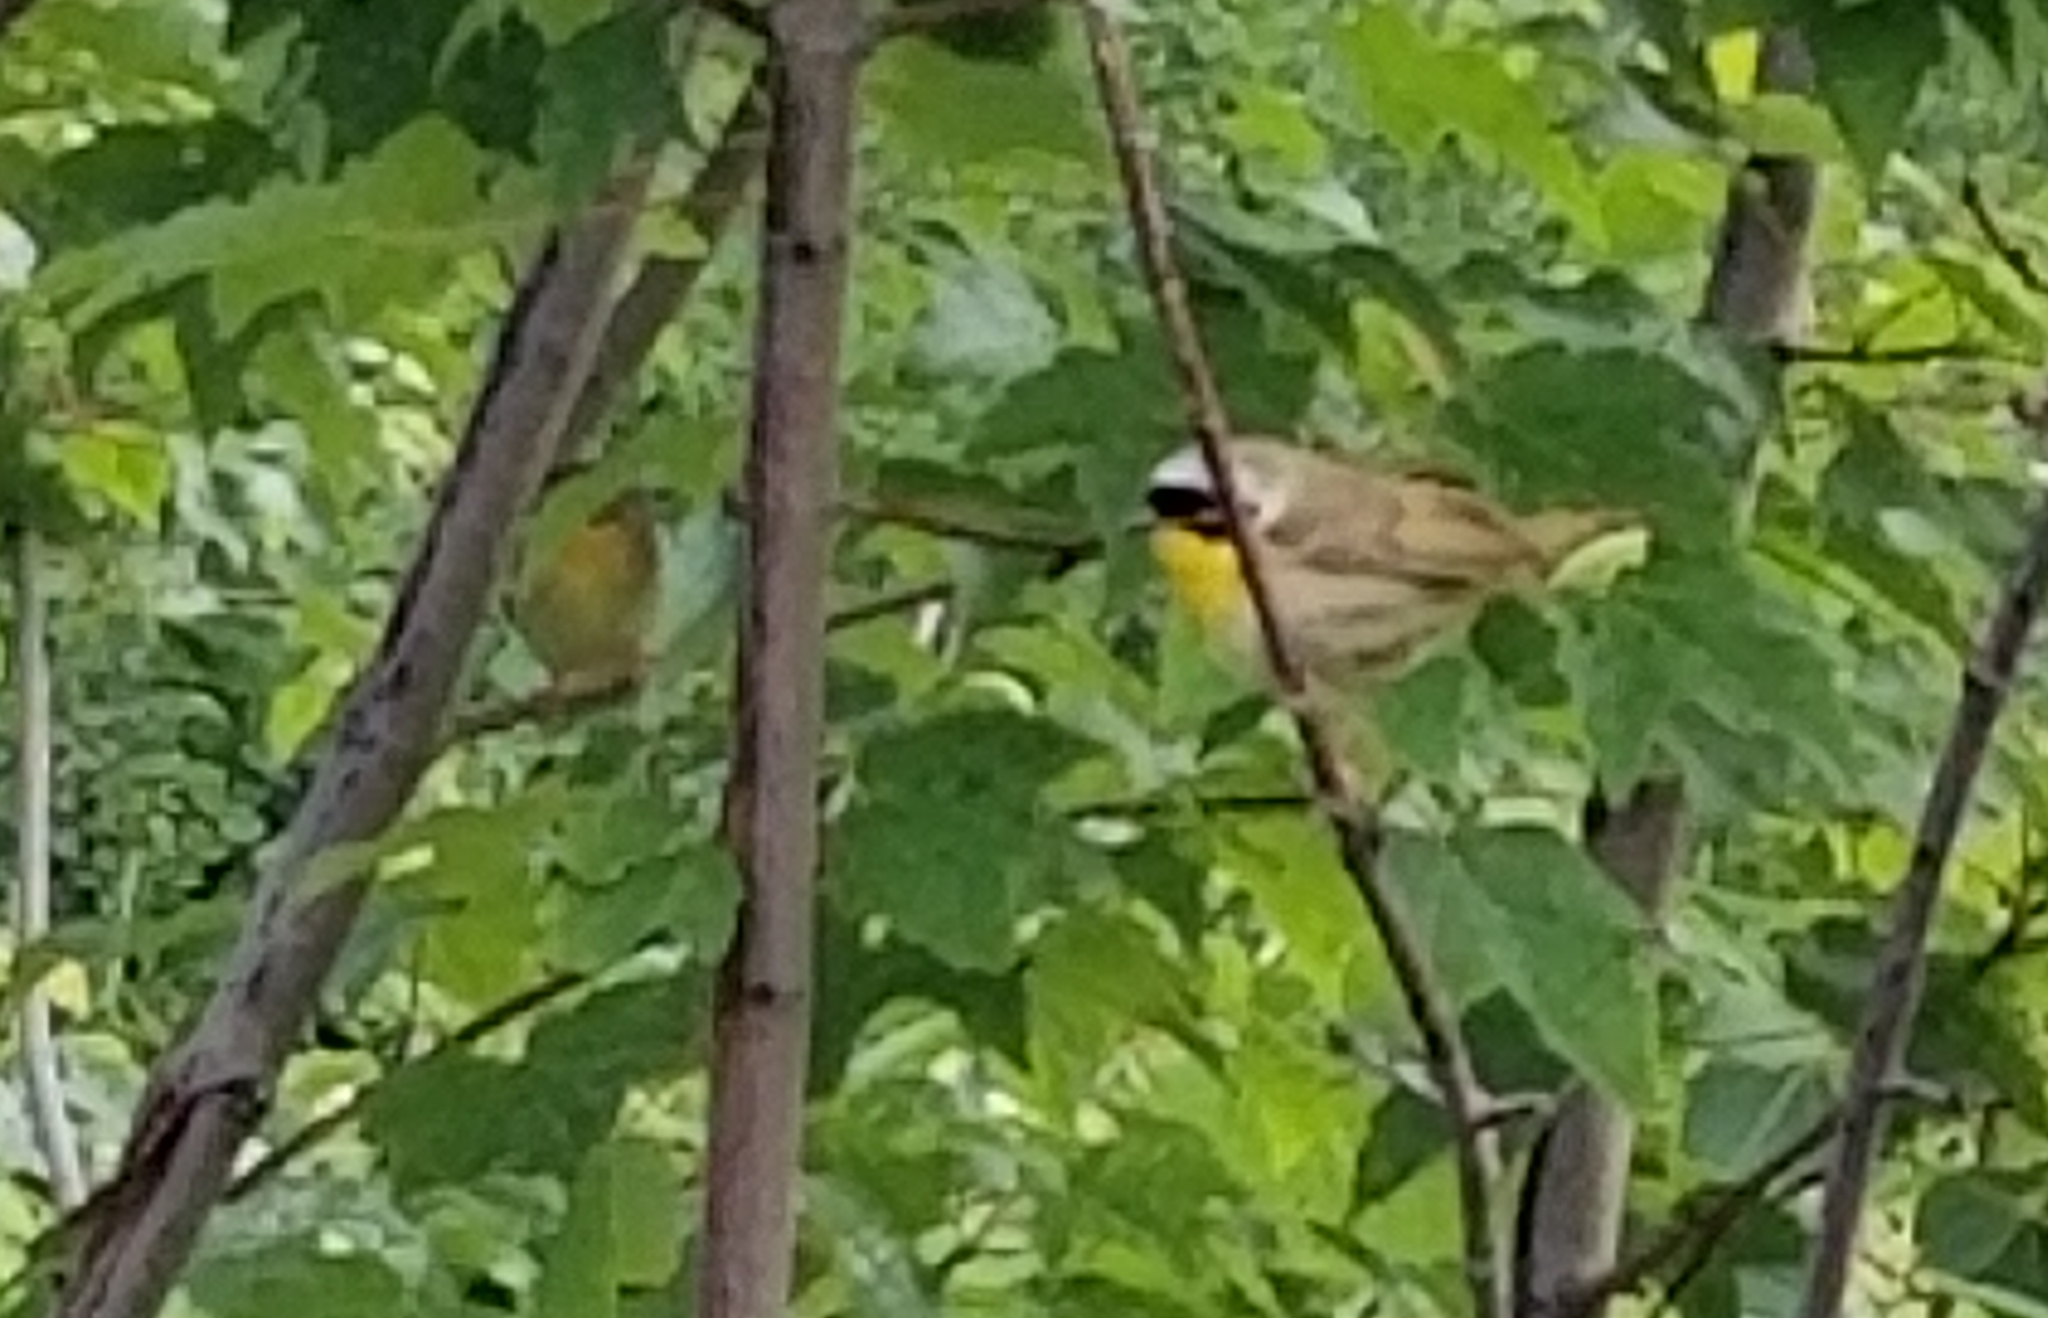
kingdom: Animalia
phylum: Chordata
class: Aves
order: Passeriformes
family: Parulidae
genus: Geothlypis
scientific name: Geothlypis trichas
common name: Common yellowthroat
